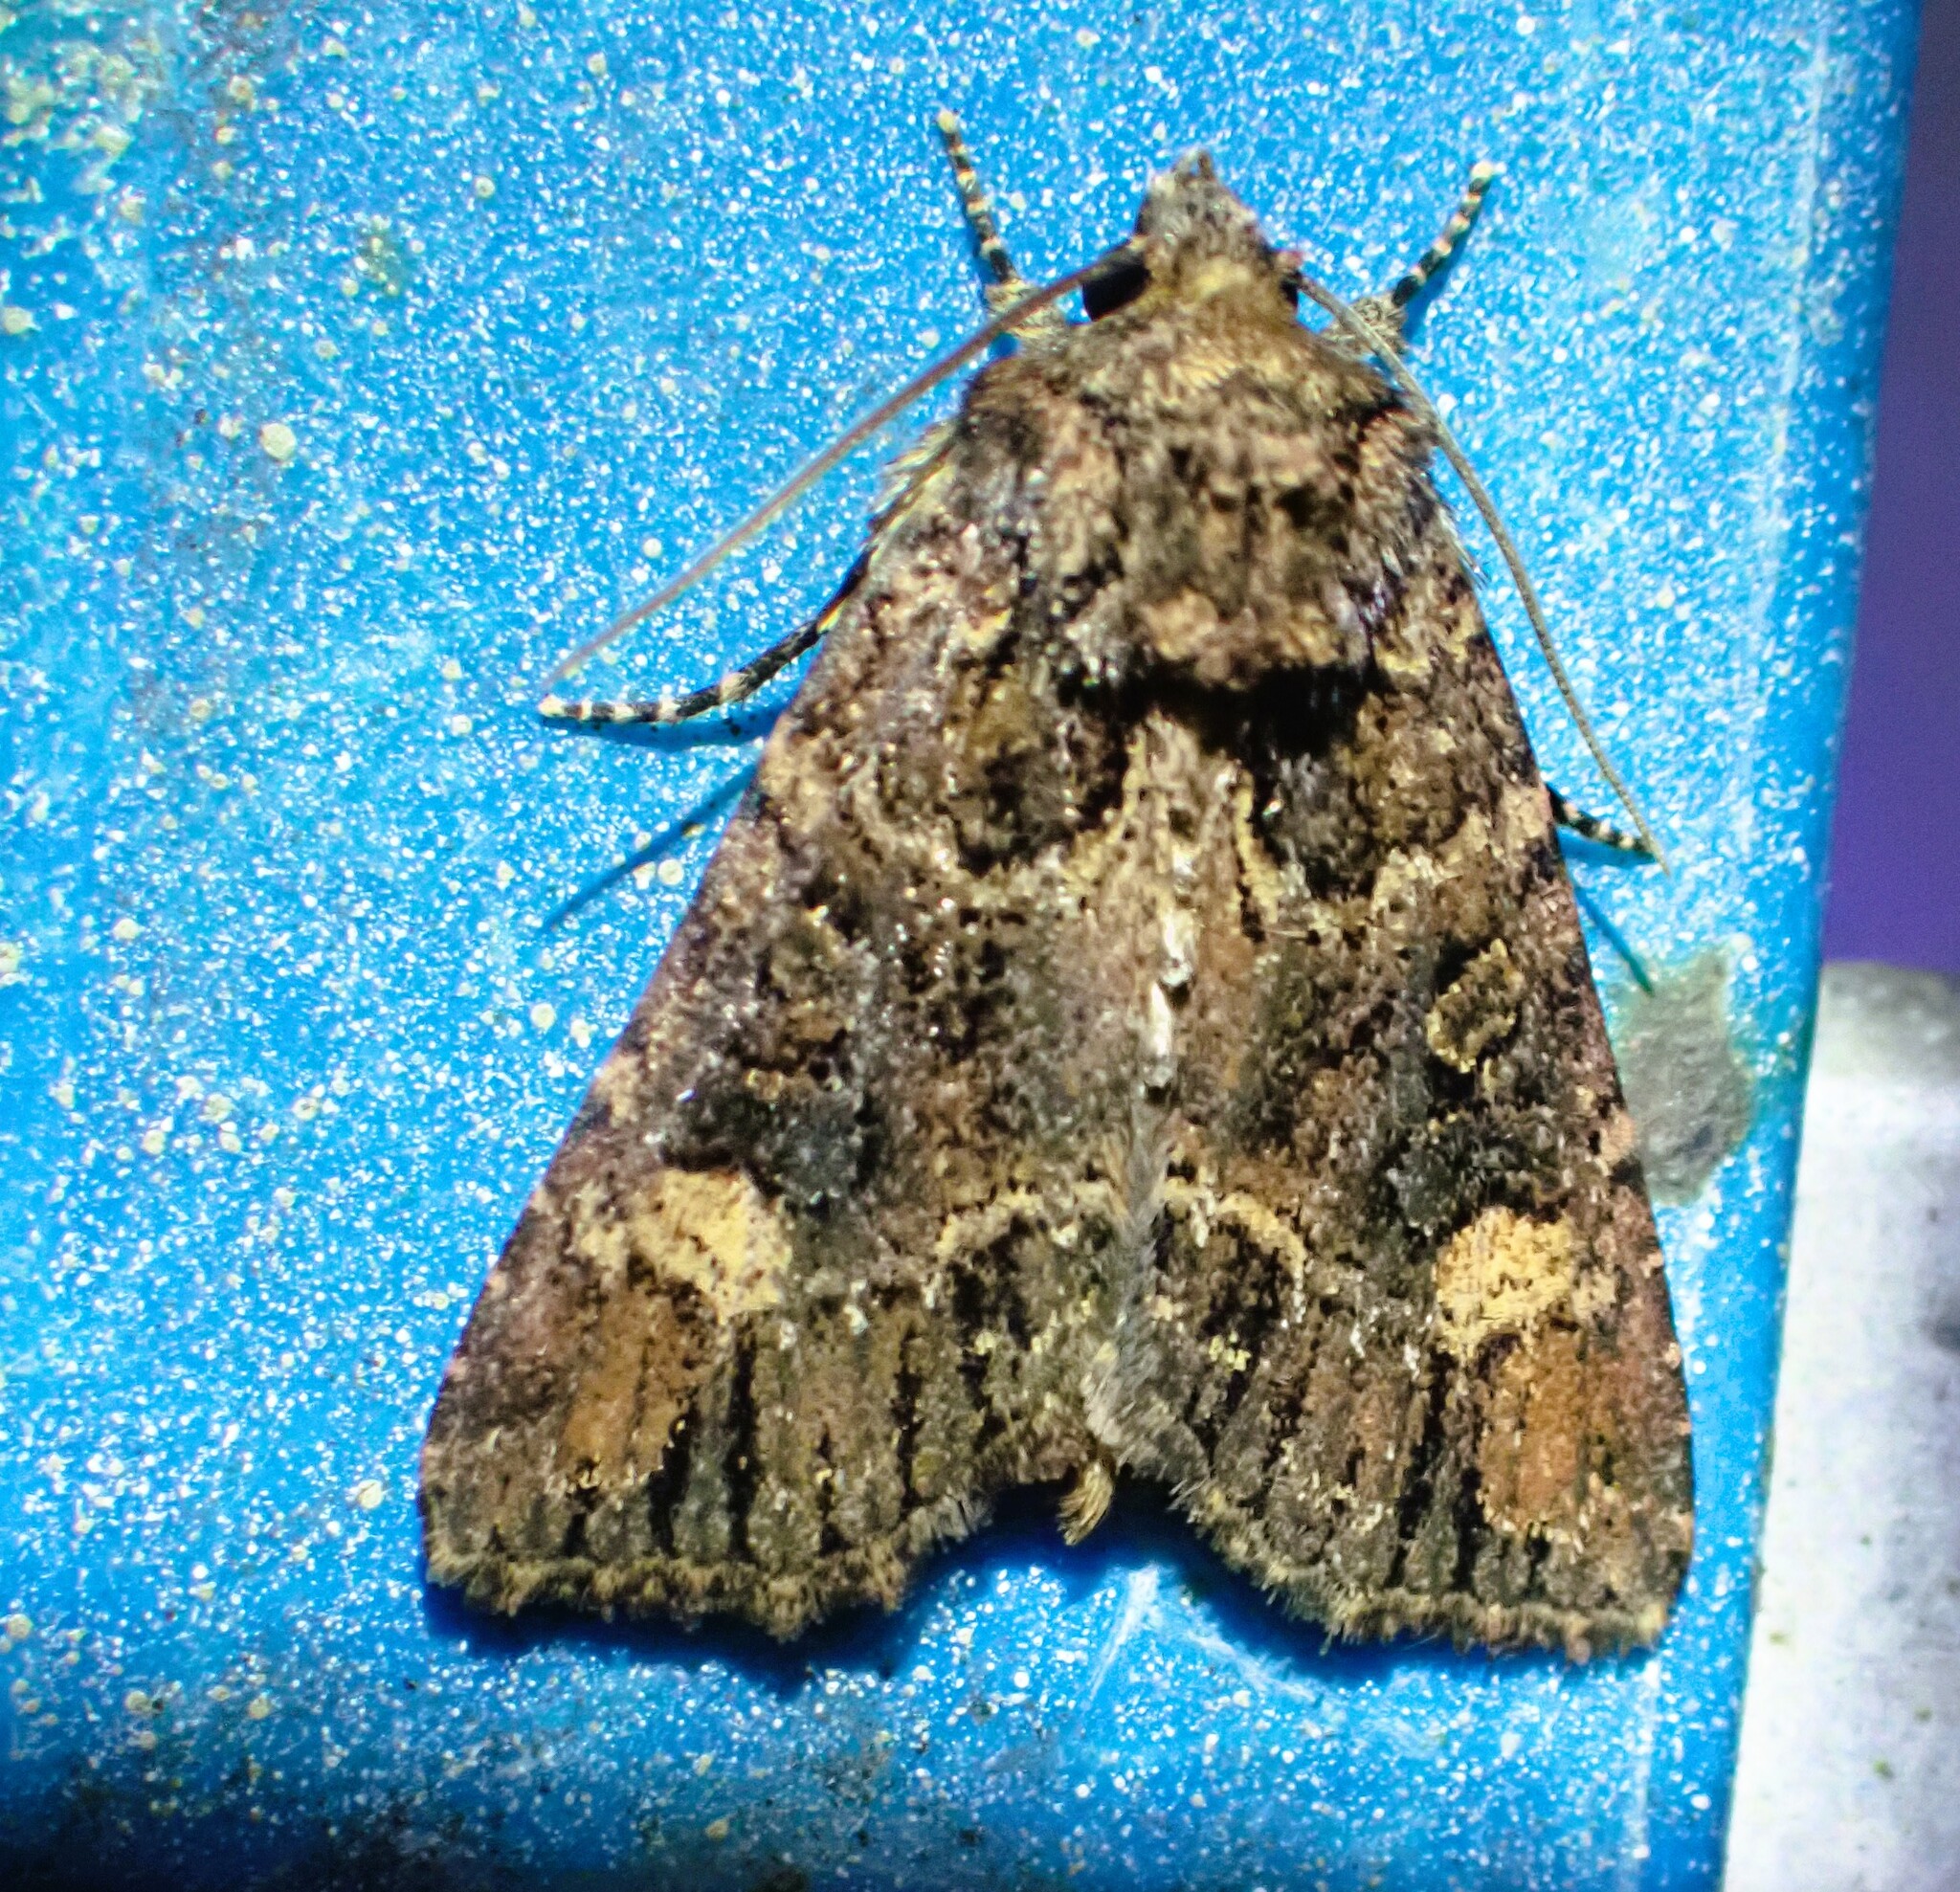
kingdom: Animalia
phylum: Arthropoda
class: Insecta
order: Lepidoptera
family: Noctuidae
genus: Aseptis
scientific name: Aseptis binotata
